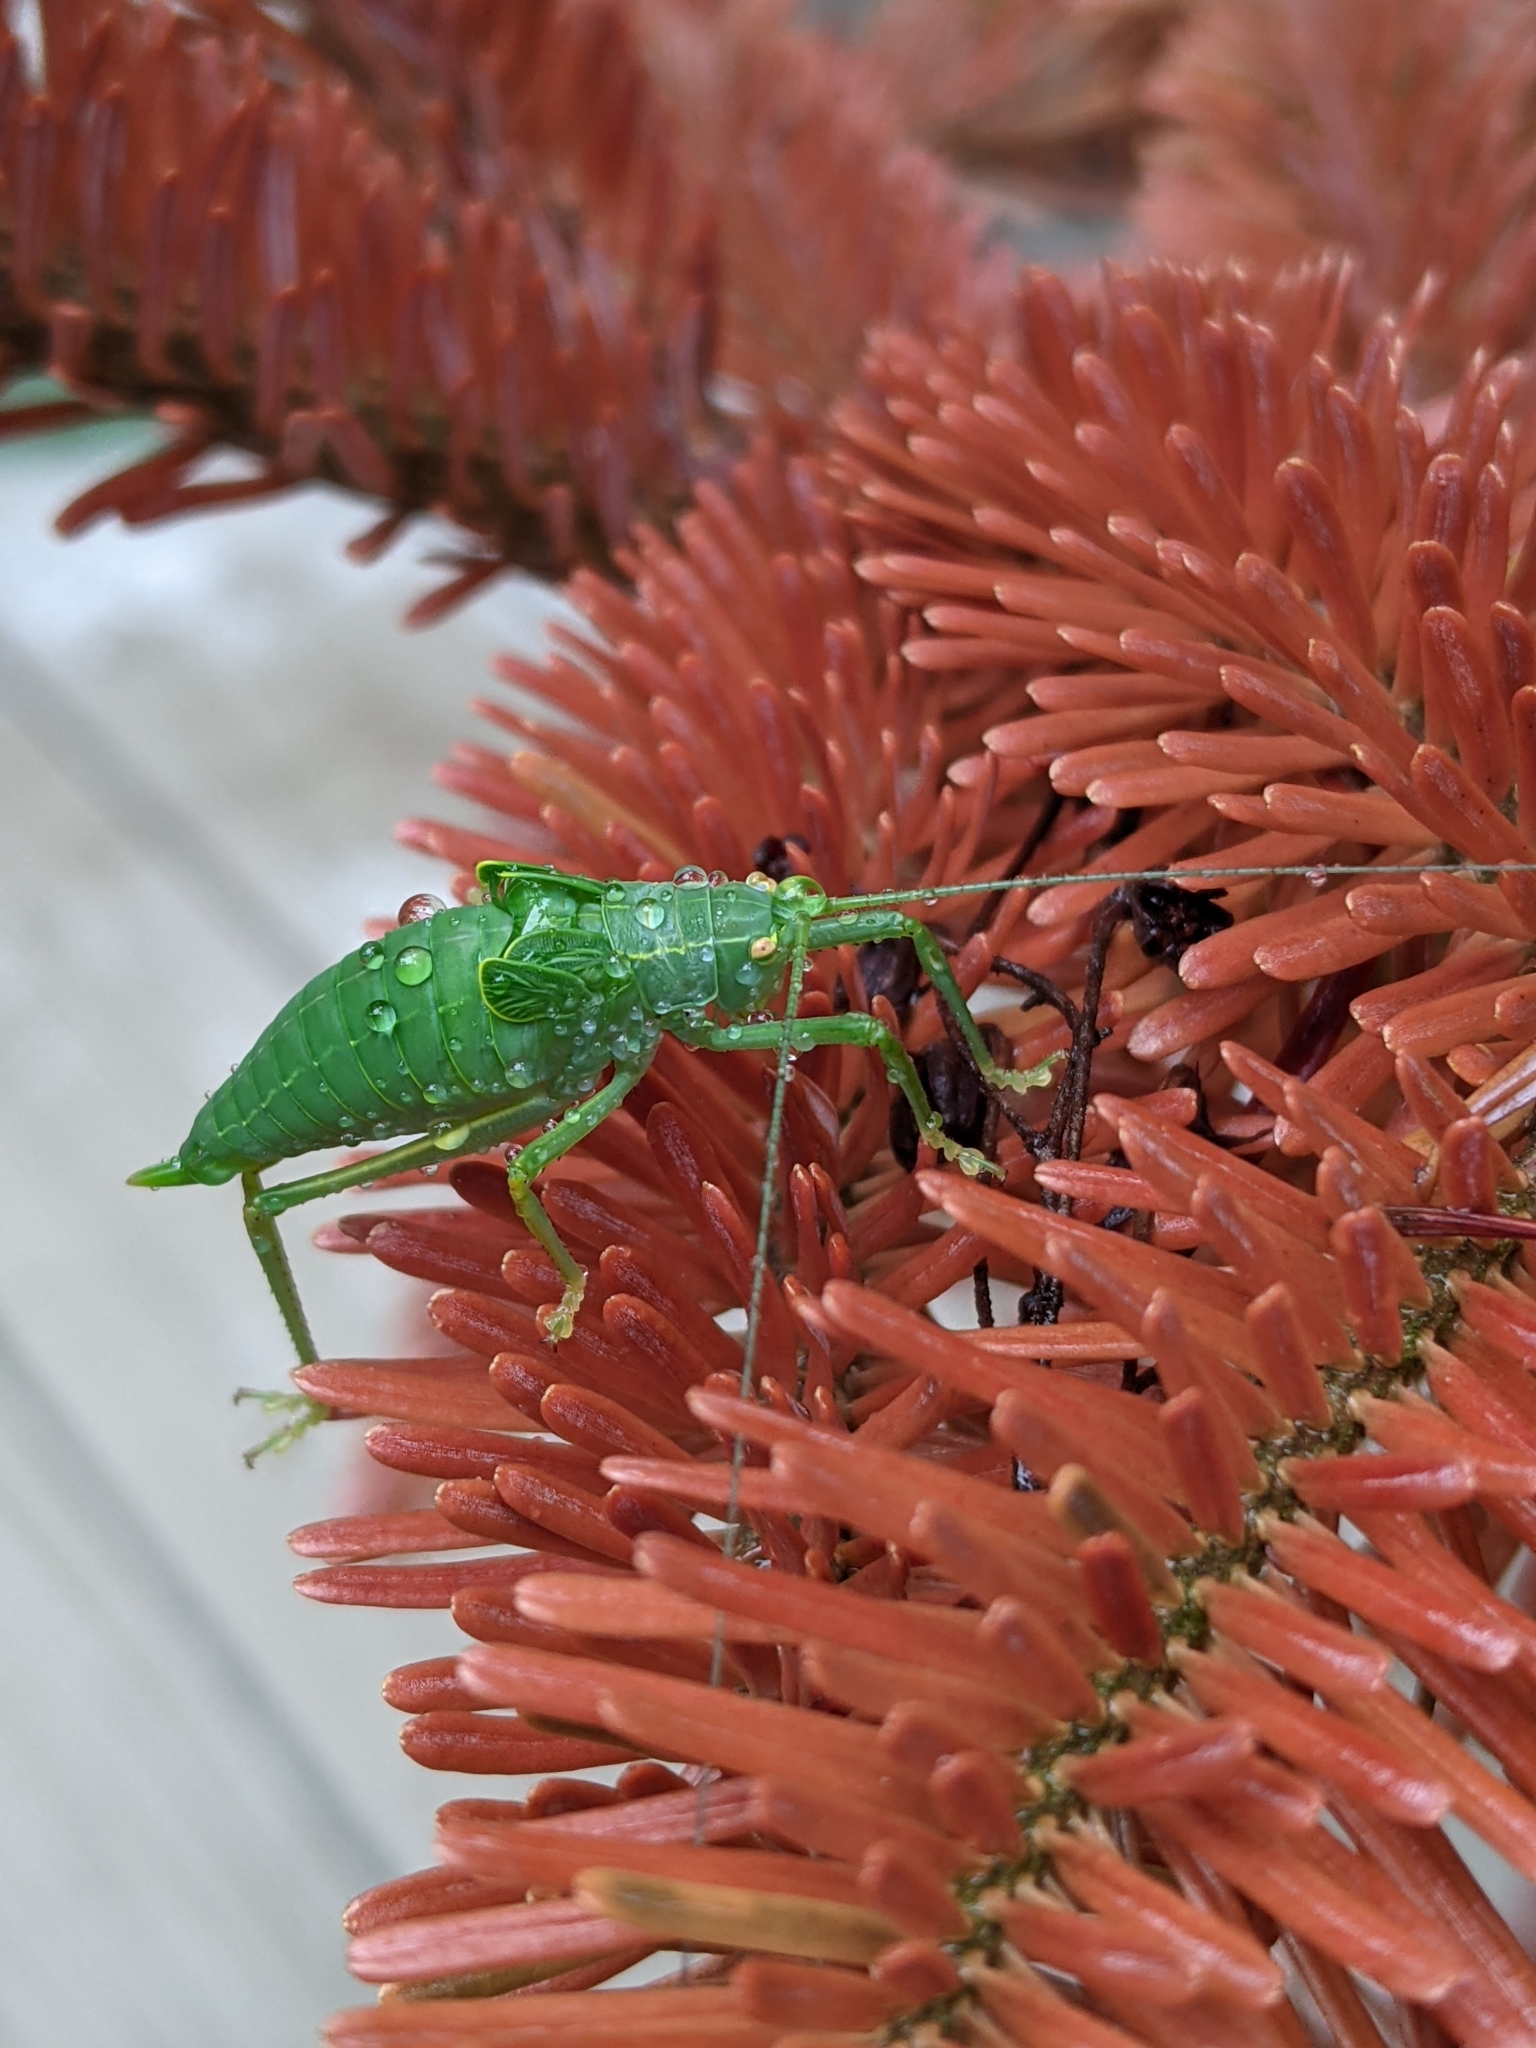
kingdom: Animalia
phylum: Arthropoda
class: Insecta
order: Orthoptera
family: Tettigoniidae
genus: Pterophylla
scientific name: Pterophylla camellifolia
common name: Common true katydid
